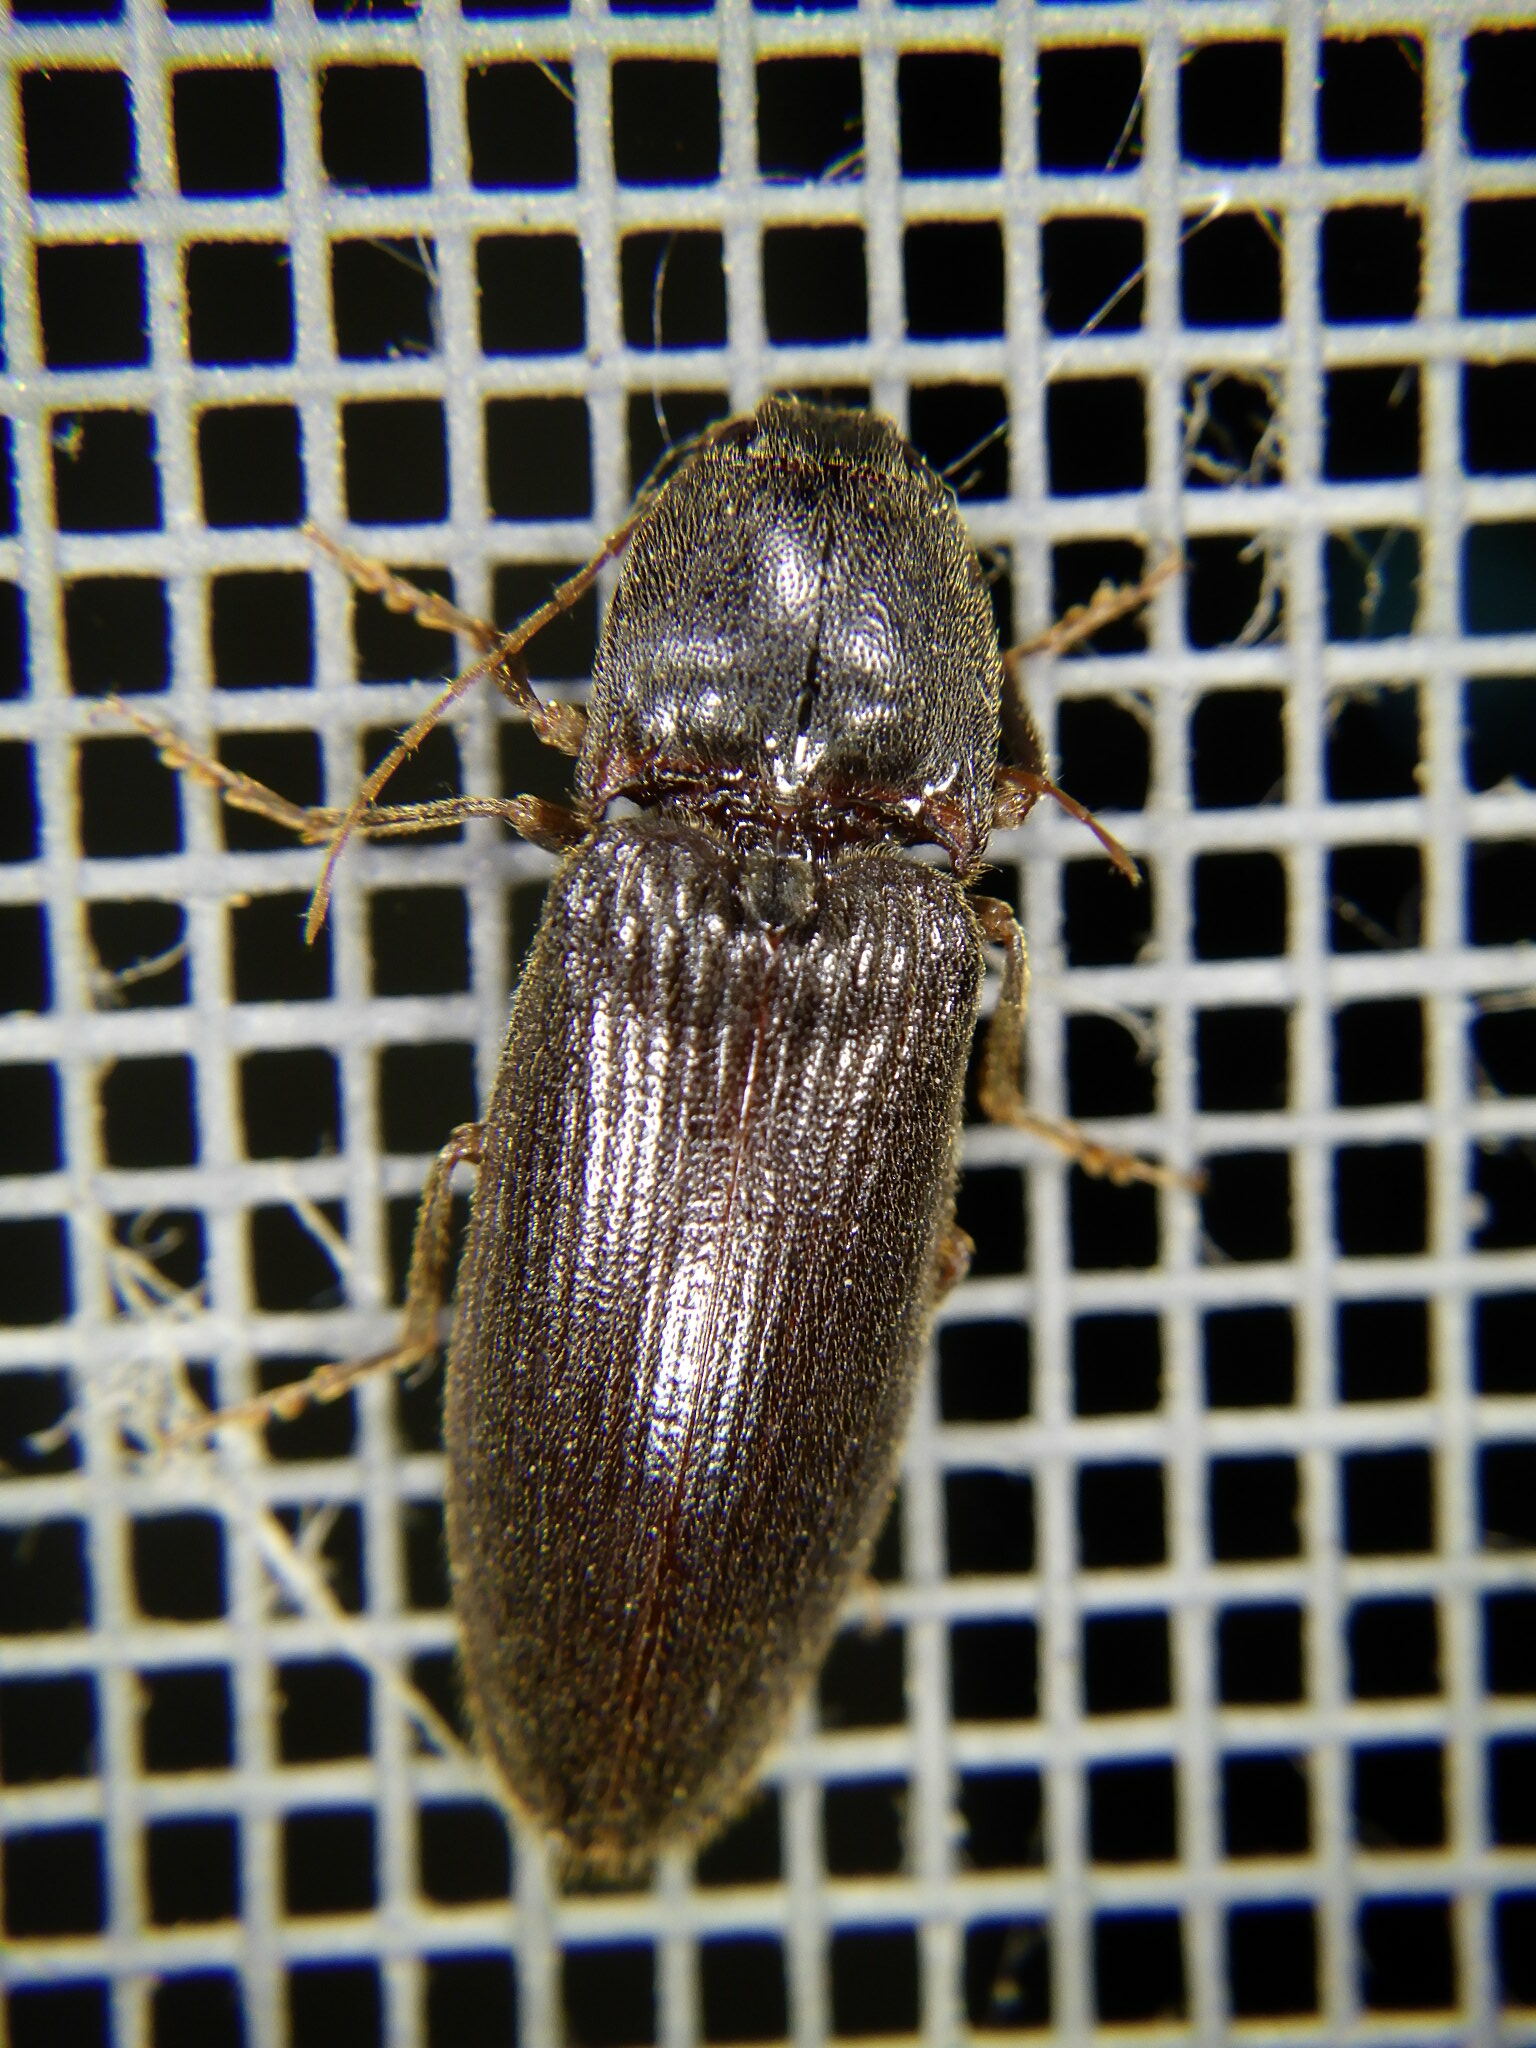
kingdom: Animalia
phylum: Arthropoda
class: Insecta
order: Coleoptera
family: Elateridae
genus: Hemicrepidius
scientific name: Hemicrepidius
